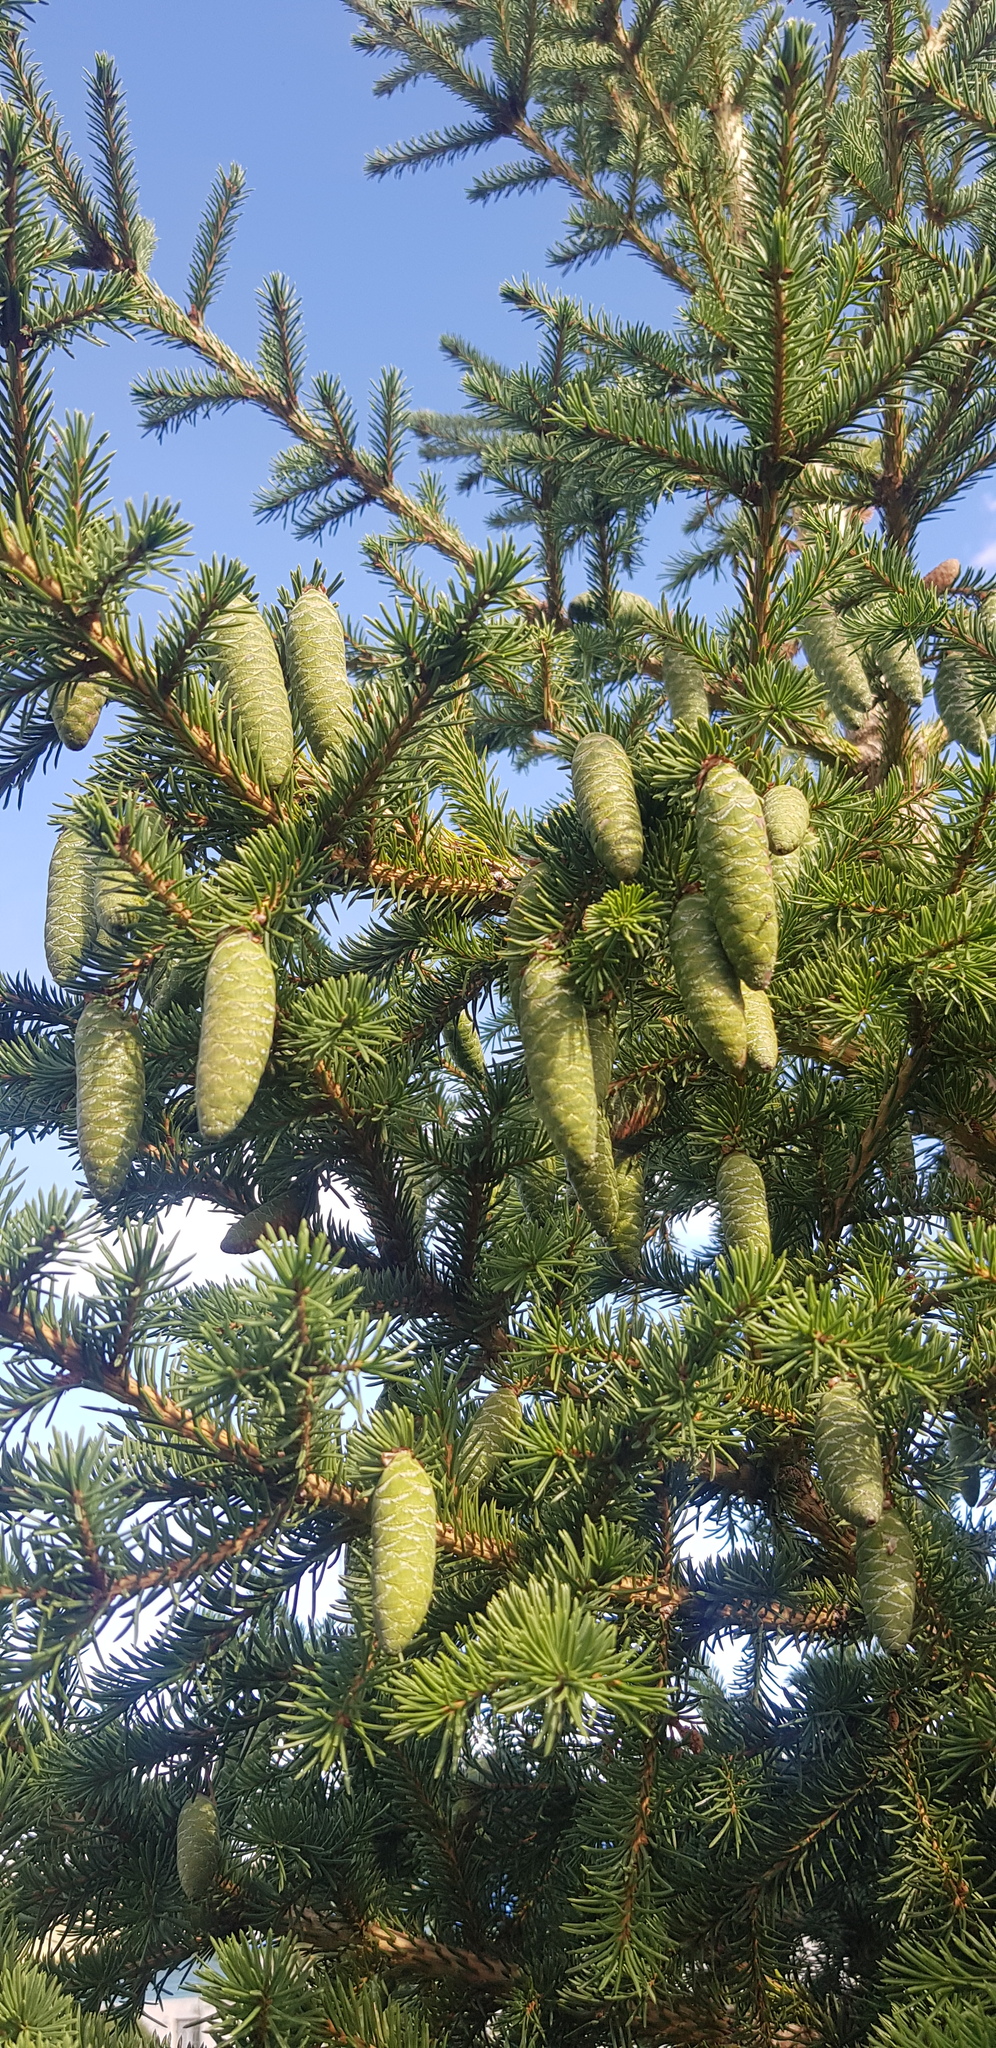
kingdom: Plantae
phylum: Tracheophyta
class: Pinopsida
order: Pinales
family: Pinaceae
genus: Picea
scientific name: Picea obovata
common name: Siberian spruce
